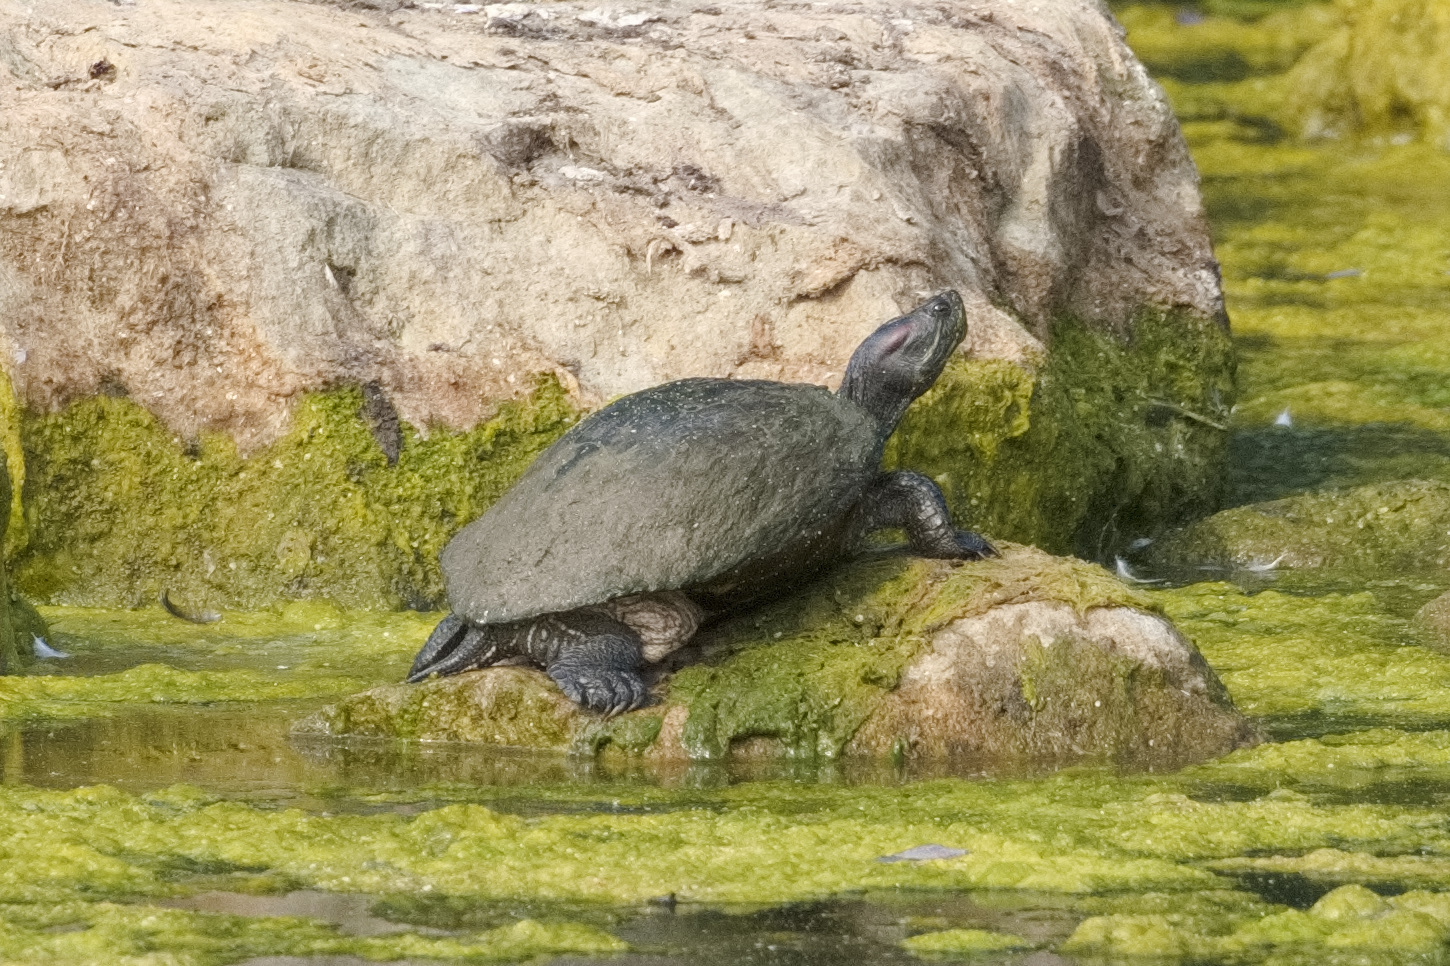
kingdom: Animalia
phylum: Chordata
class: Testudines
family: Emydidae
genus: Trachemys
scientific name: Trachemys scripta
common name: Slider
